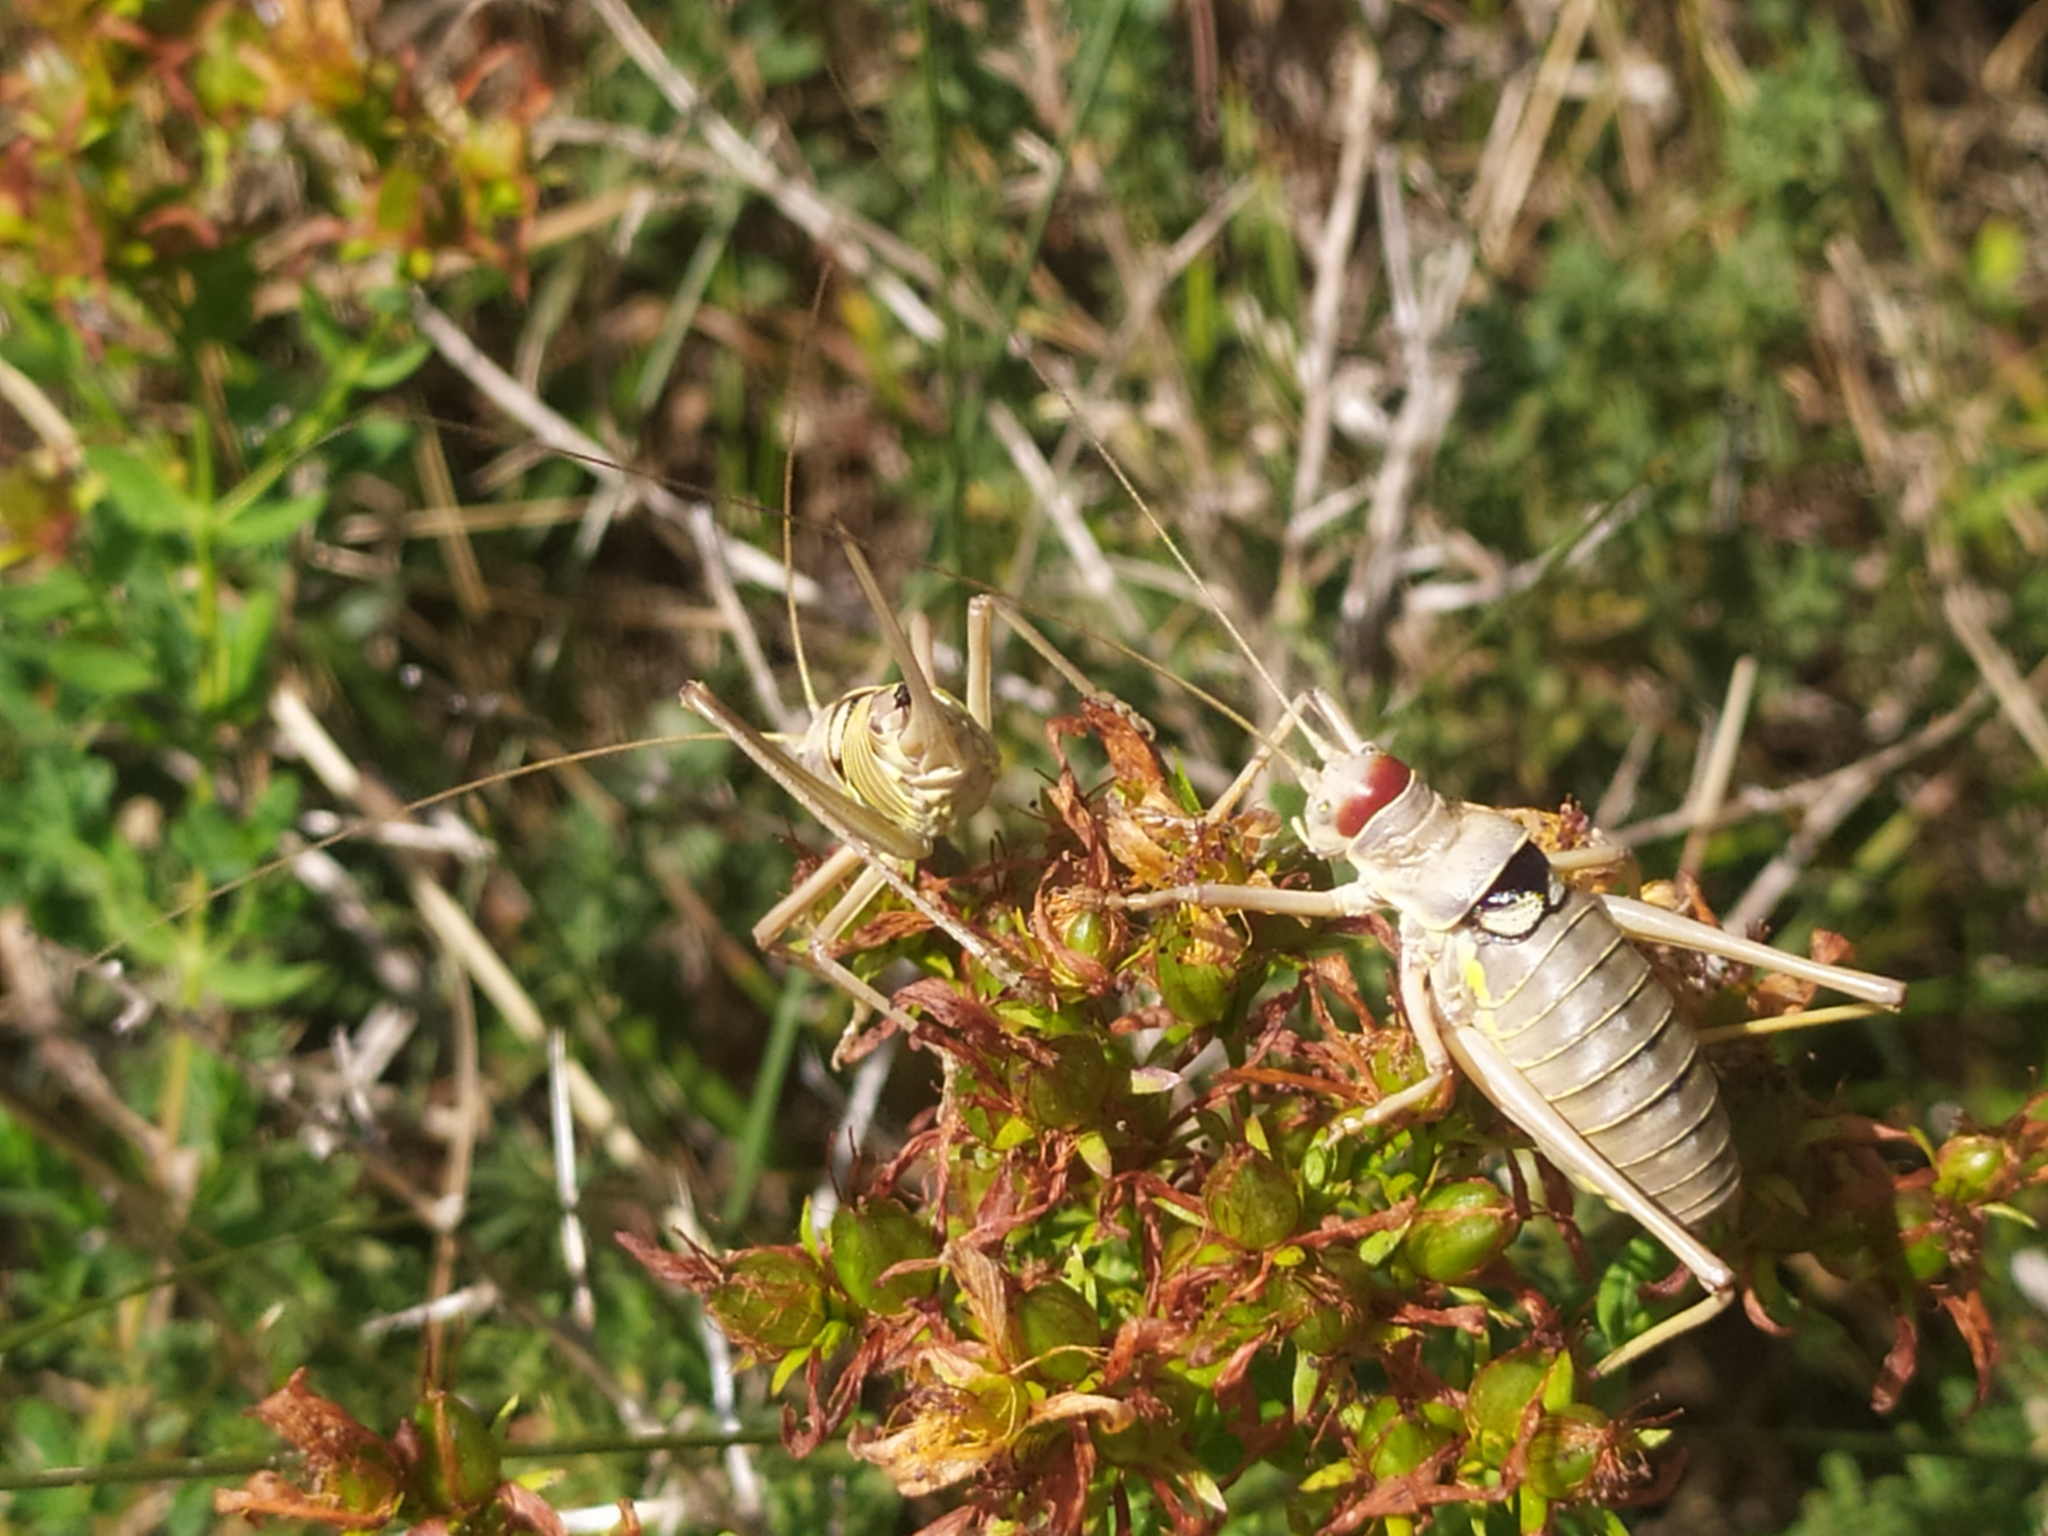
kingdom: Animalia
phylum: Arthropoda
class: Insecta
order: Orthoptera
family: Tettigoniidae
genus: Dinarippiger
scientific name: Dinarippiger discoidalis
